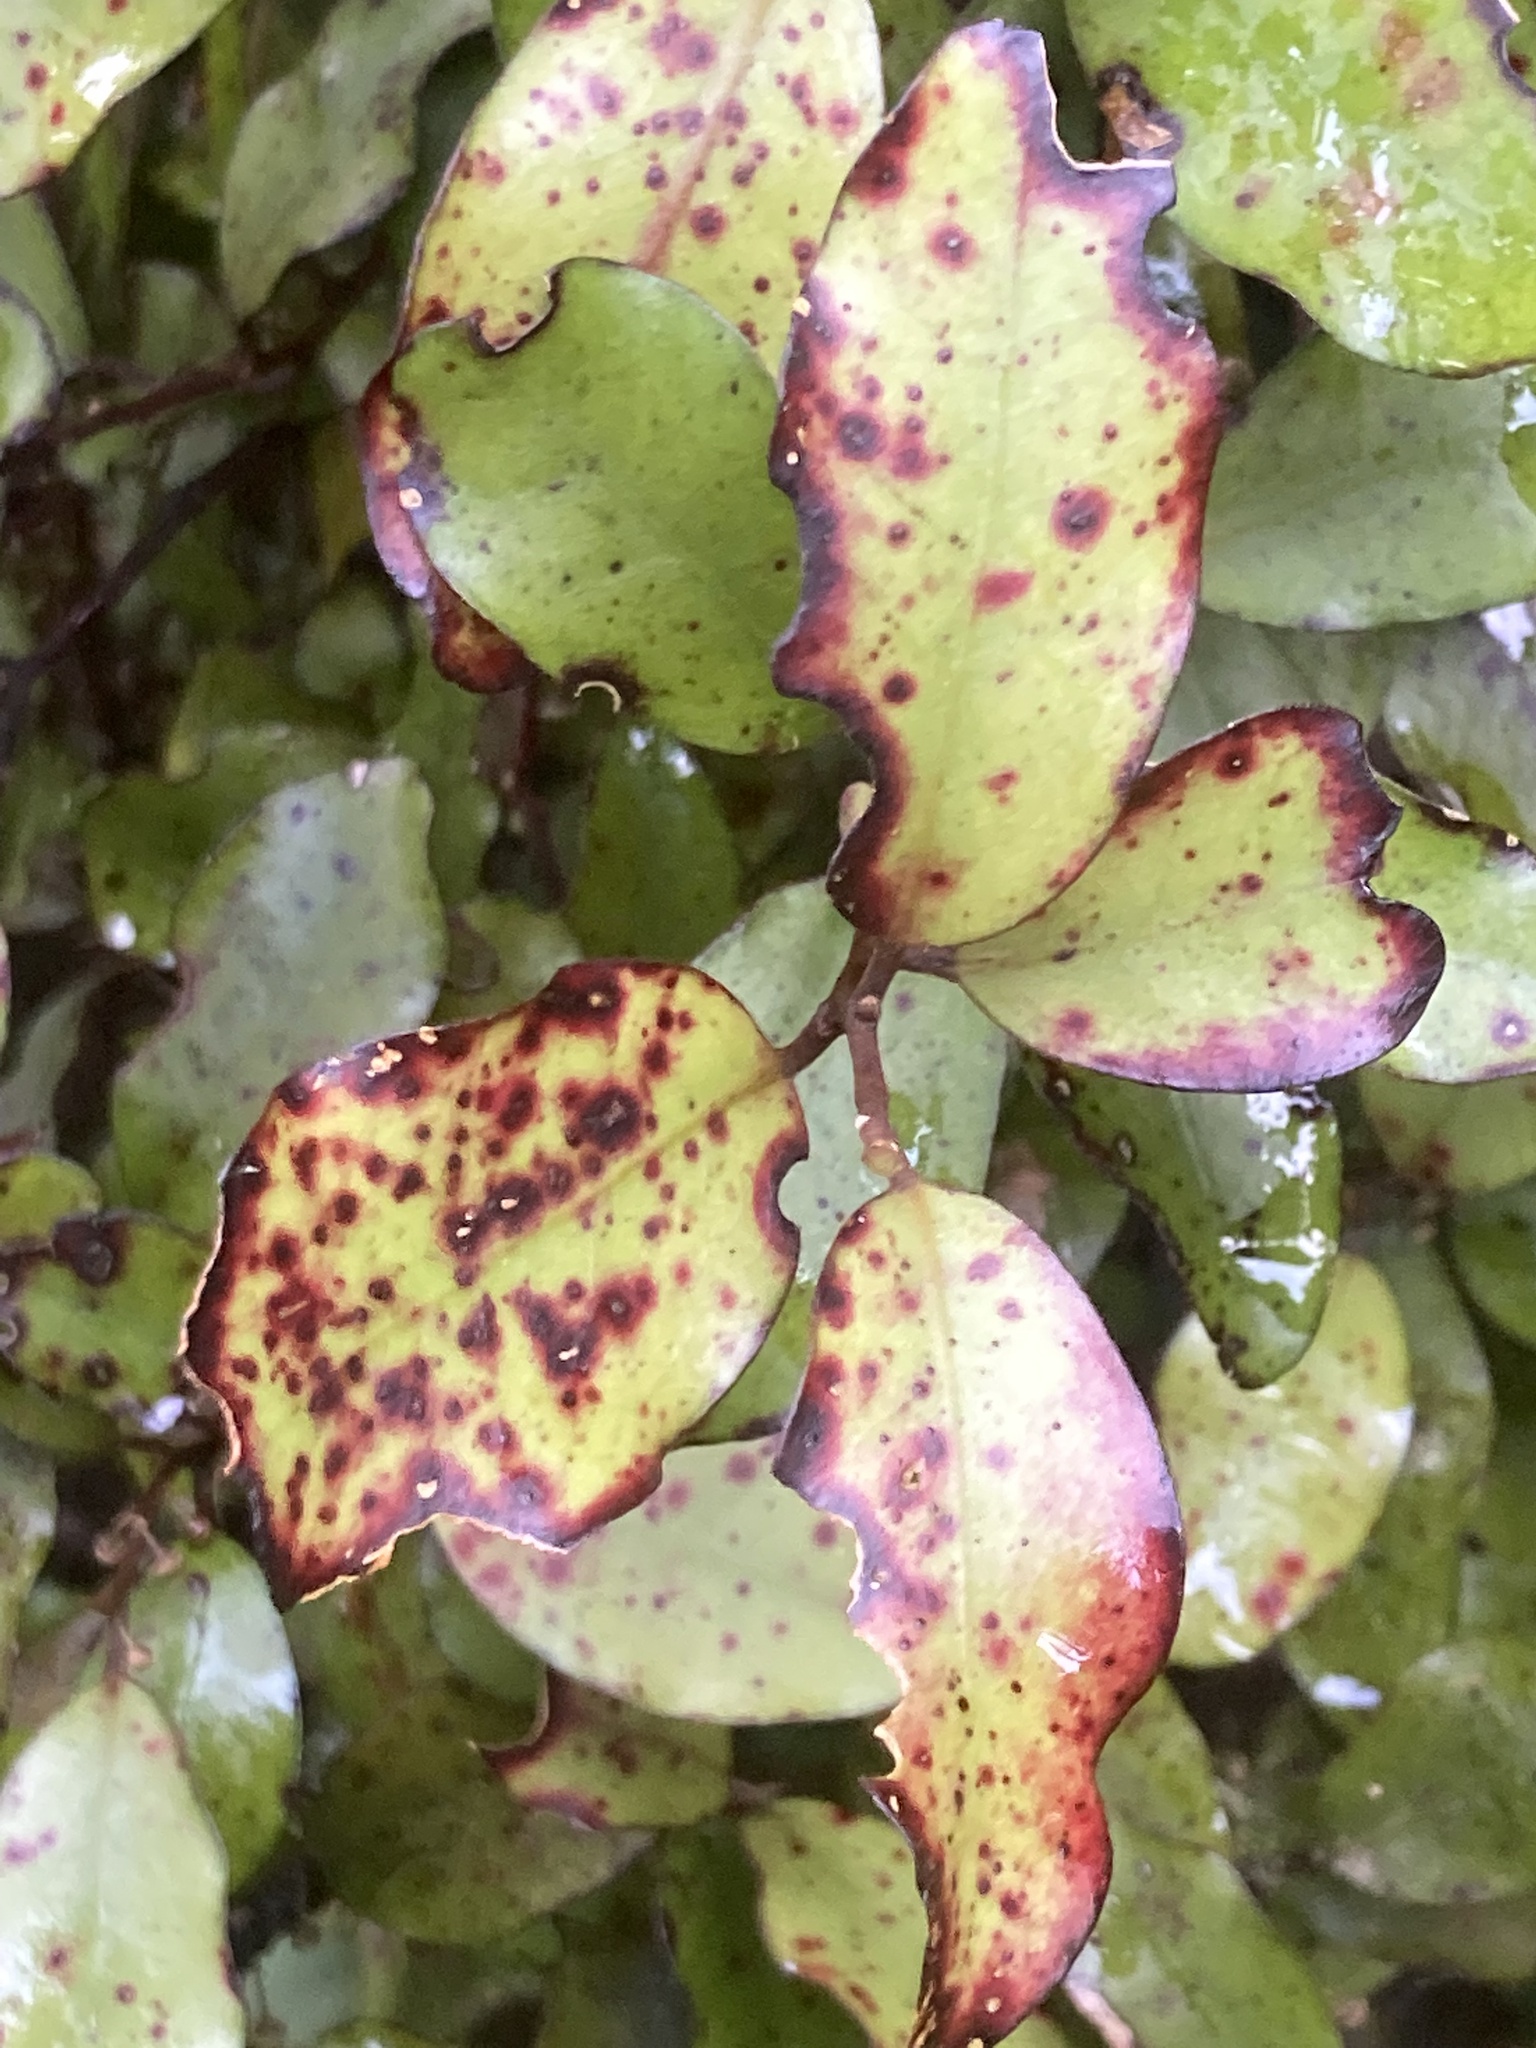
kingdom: Plantae
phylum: Tracheophyta
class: Magnoliopsida
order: Canellales
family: Winteraceae
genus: Pseudowintera
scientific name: Pseudowintera colorata
